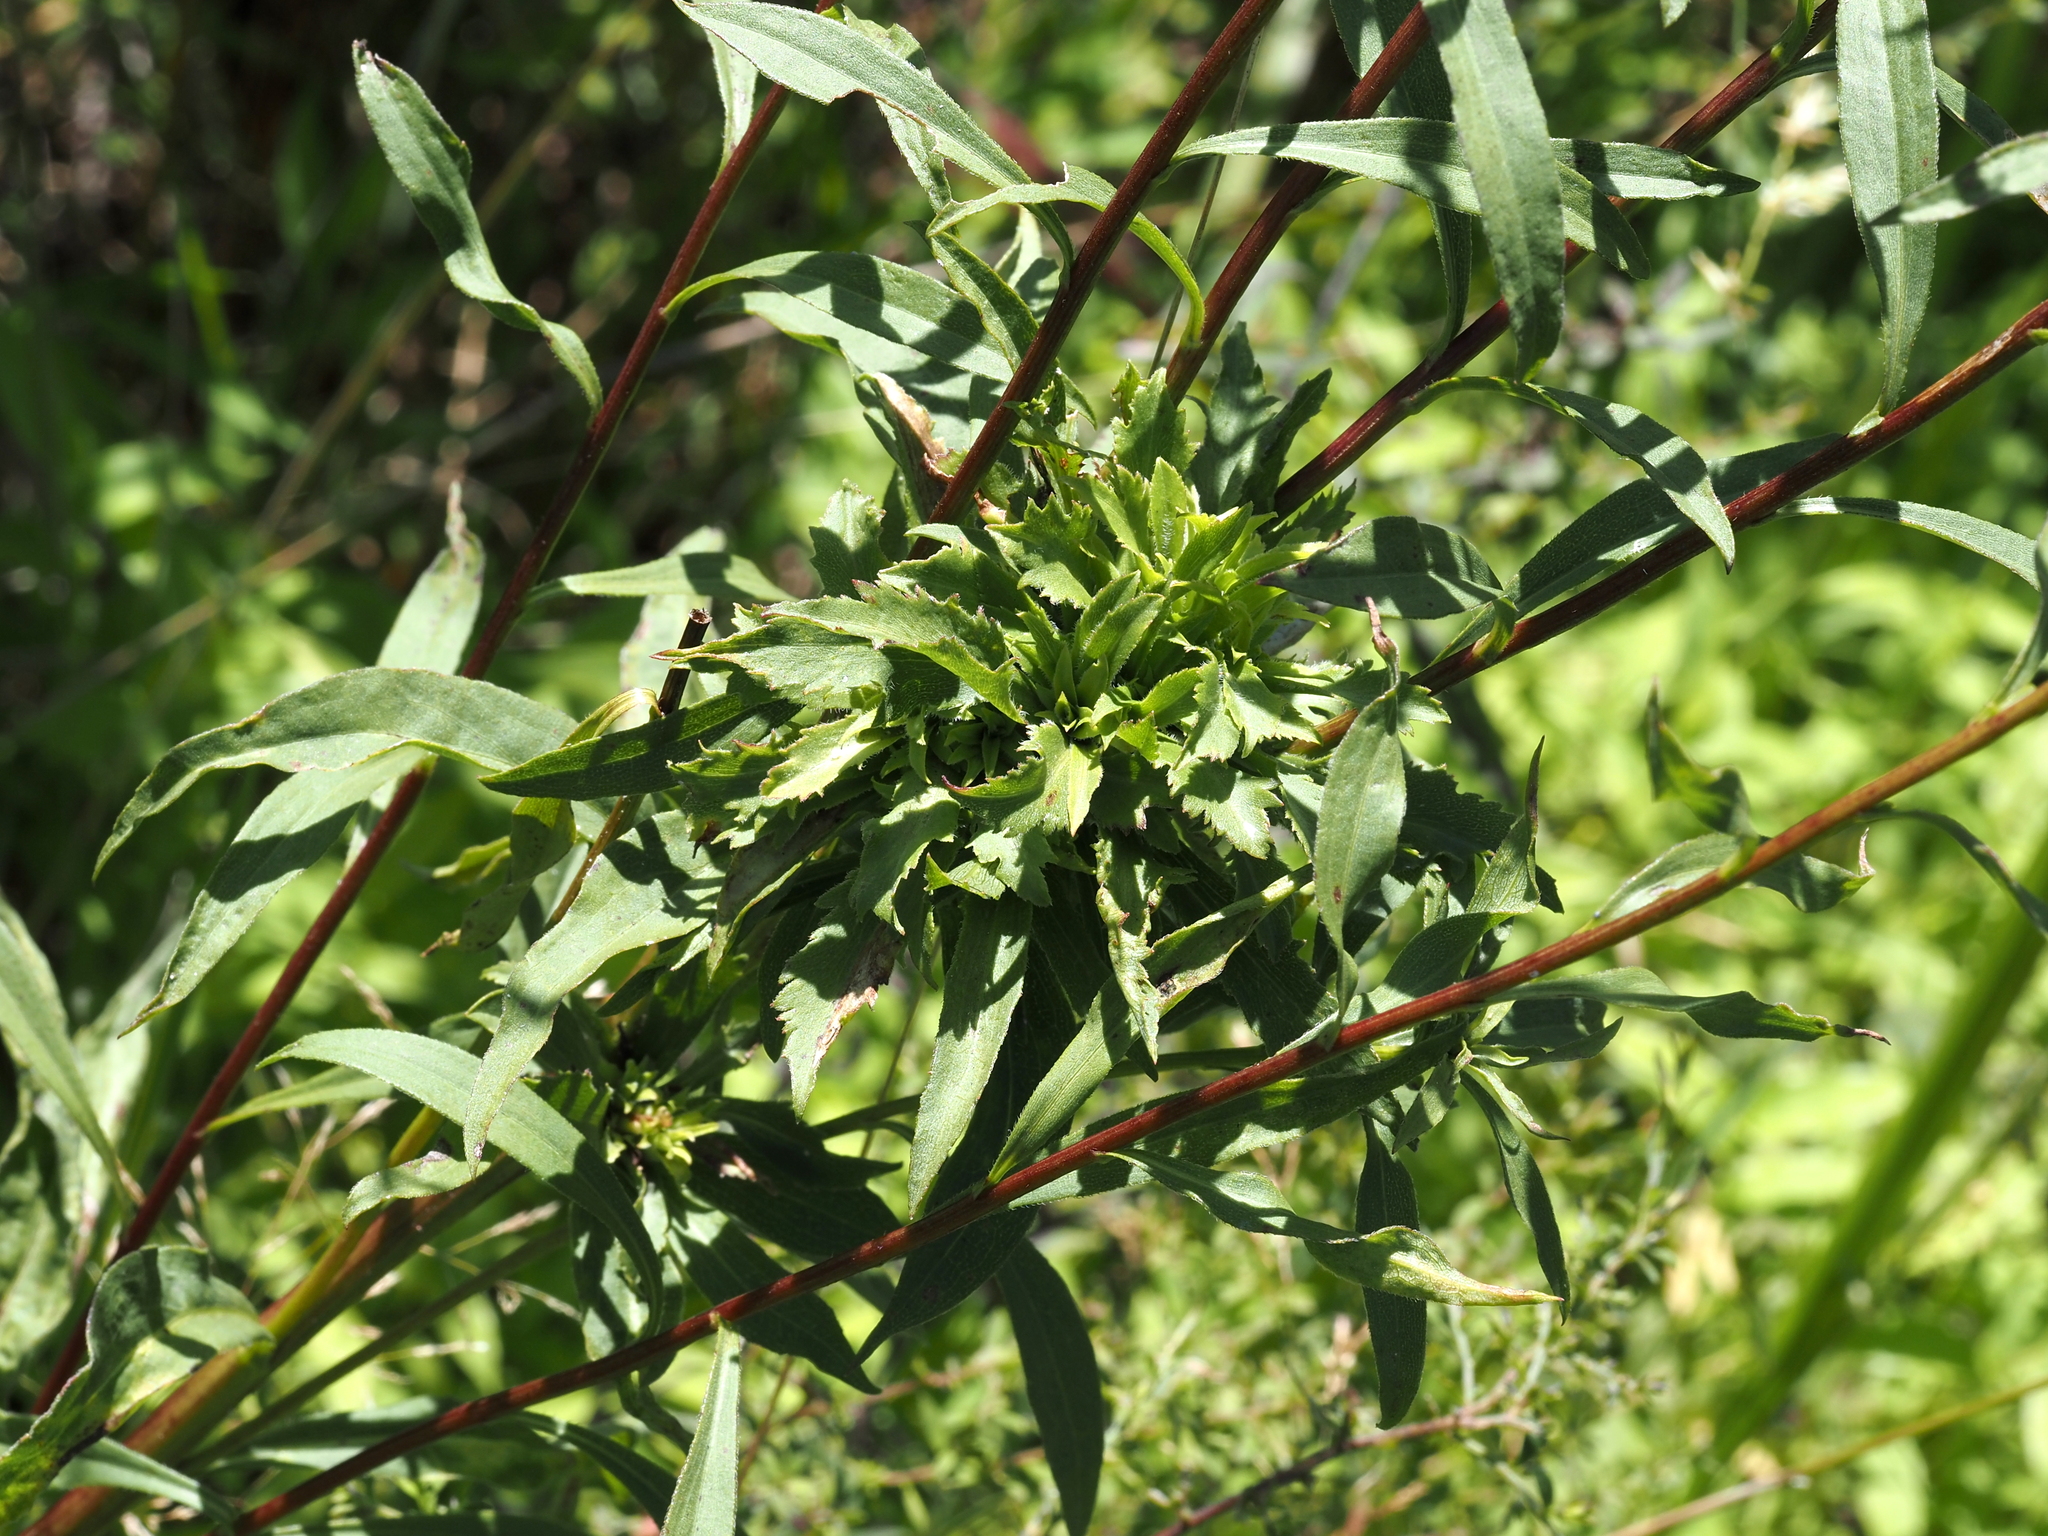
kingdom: Animalia
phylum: Arthropoda
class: Insecta
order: Diptera
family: Cecidomyiidae
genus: Asphondylia
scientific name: Asphondylia monacha
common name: Nun midge
